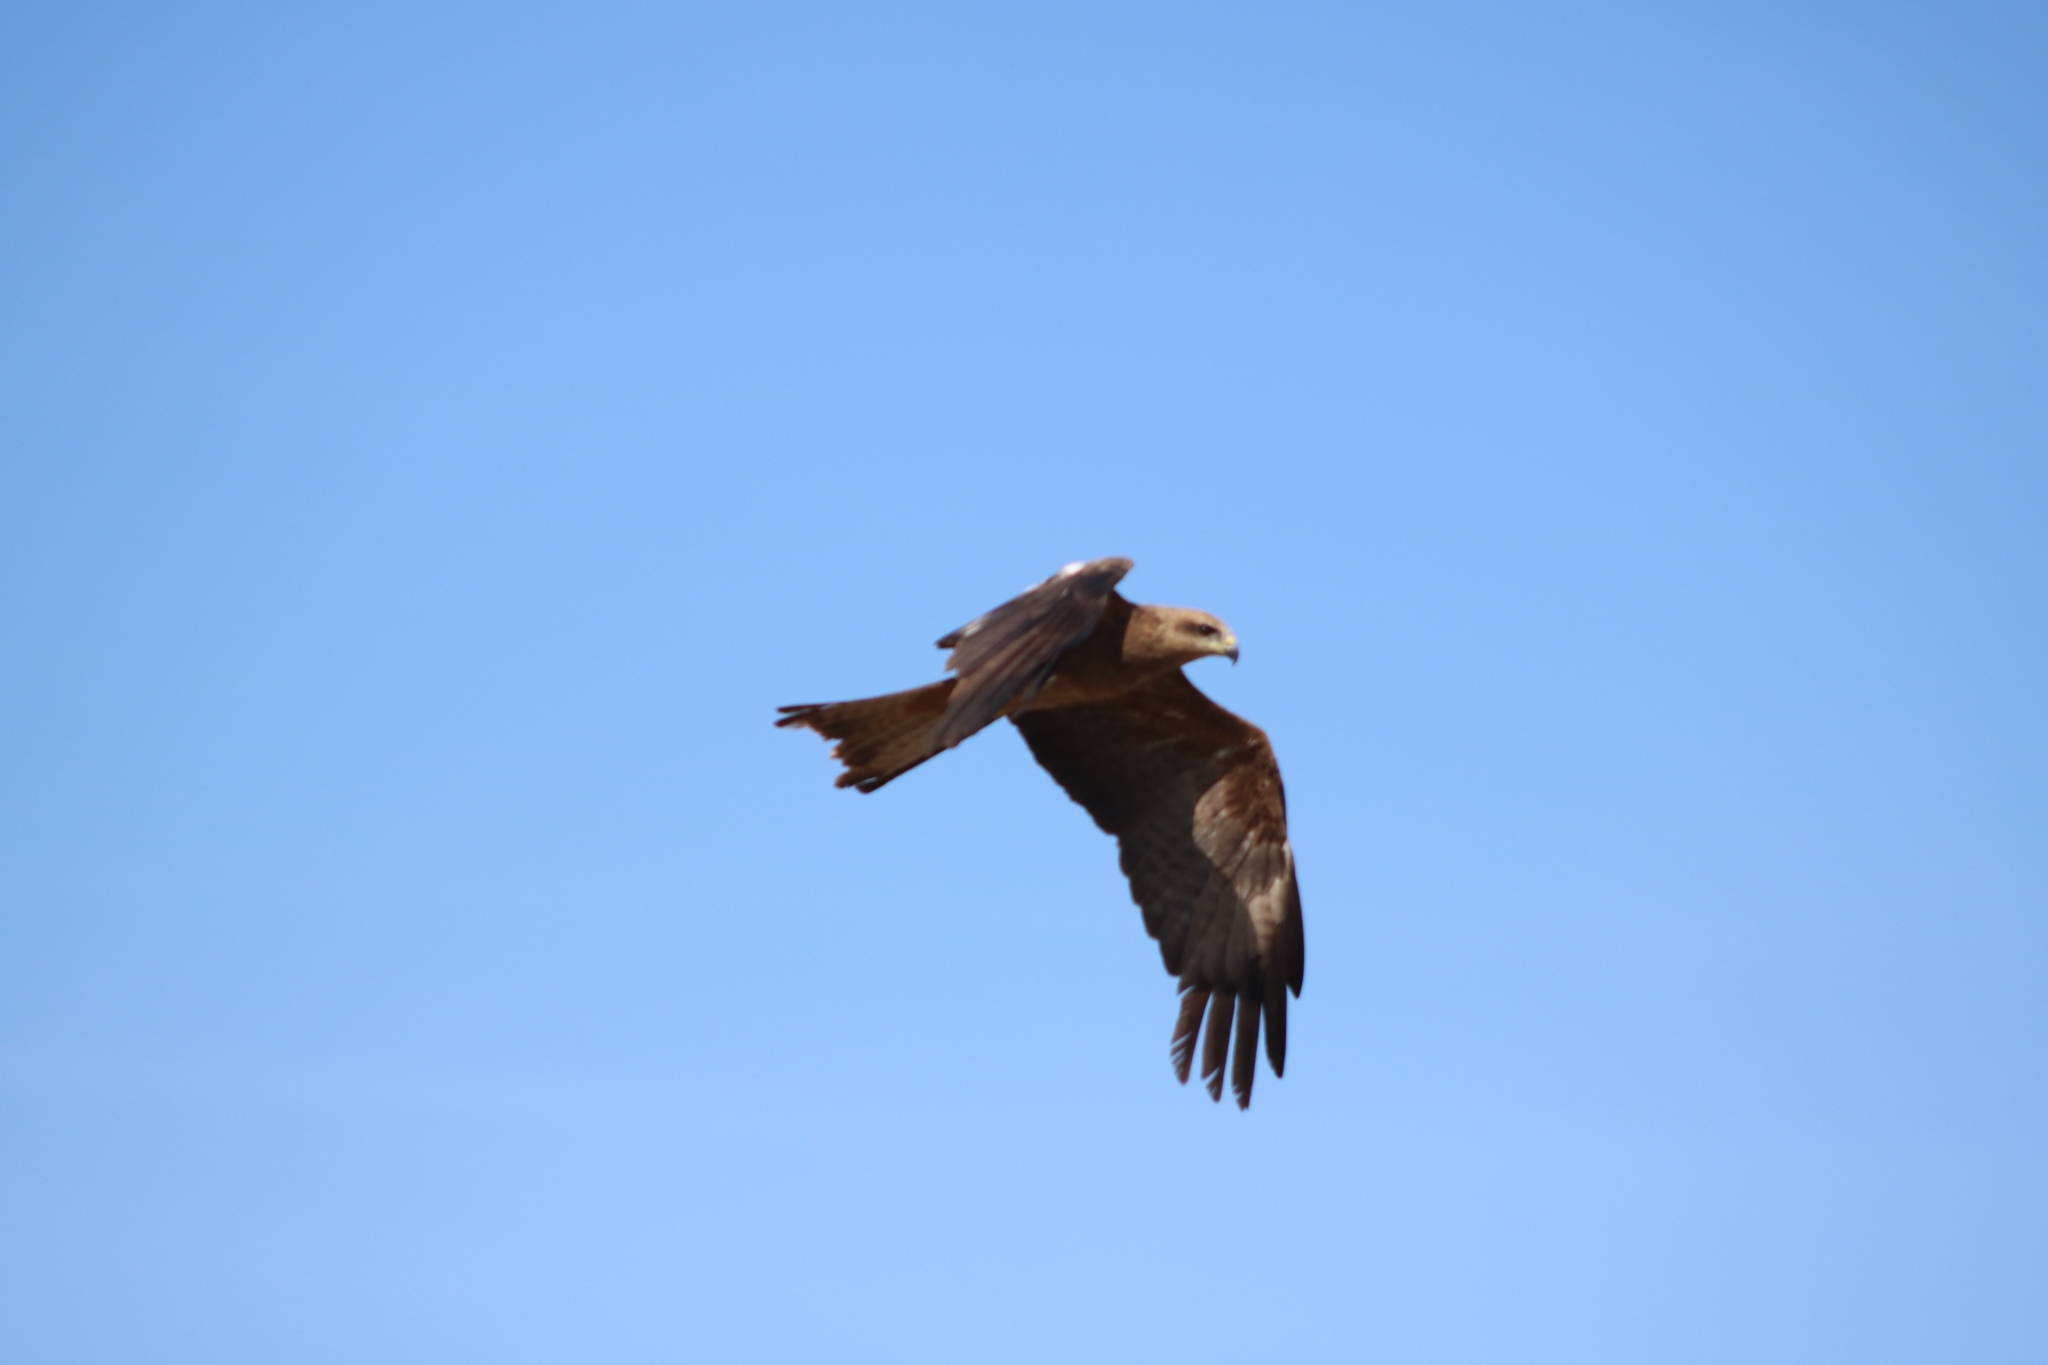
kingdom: Animalia
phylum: Chordata
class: Aves
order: Accipitriformes
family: Accipitridae
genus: Milvus
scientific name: Milvus migrans
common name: Black kite
